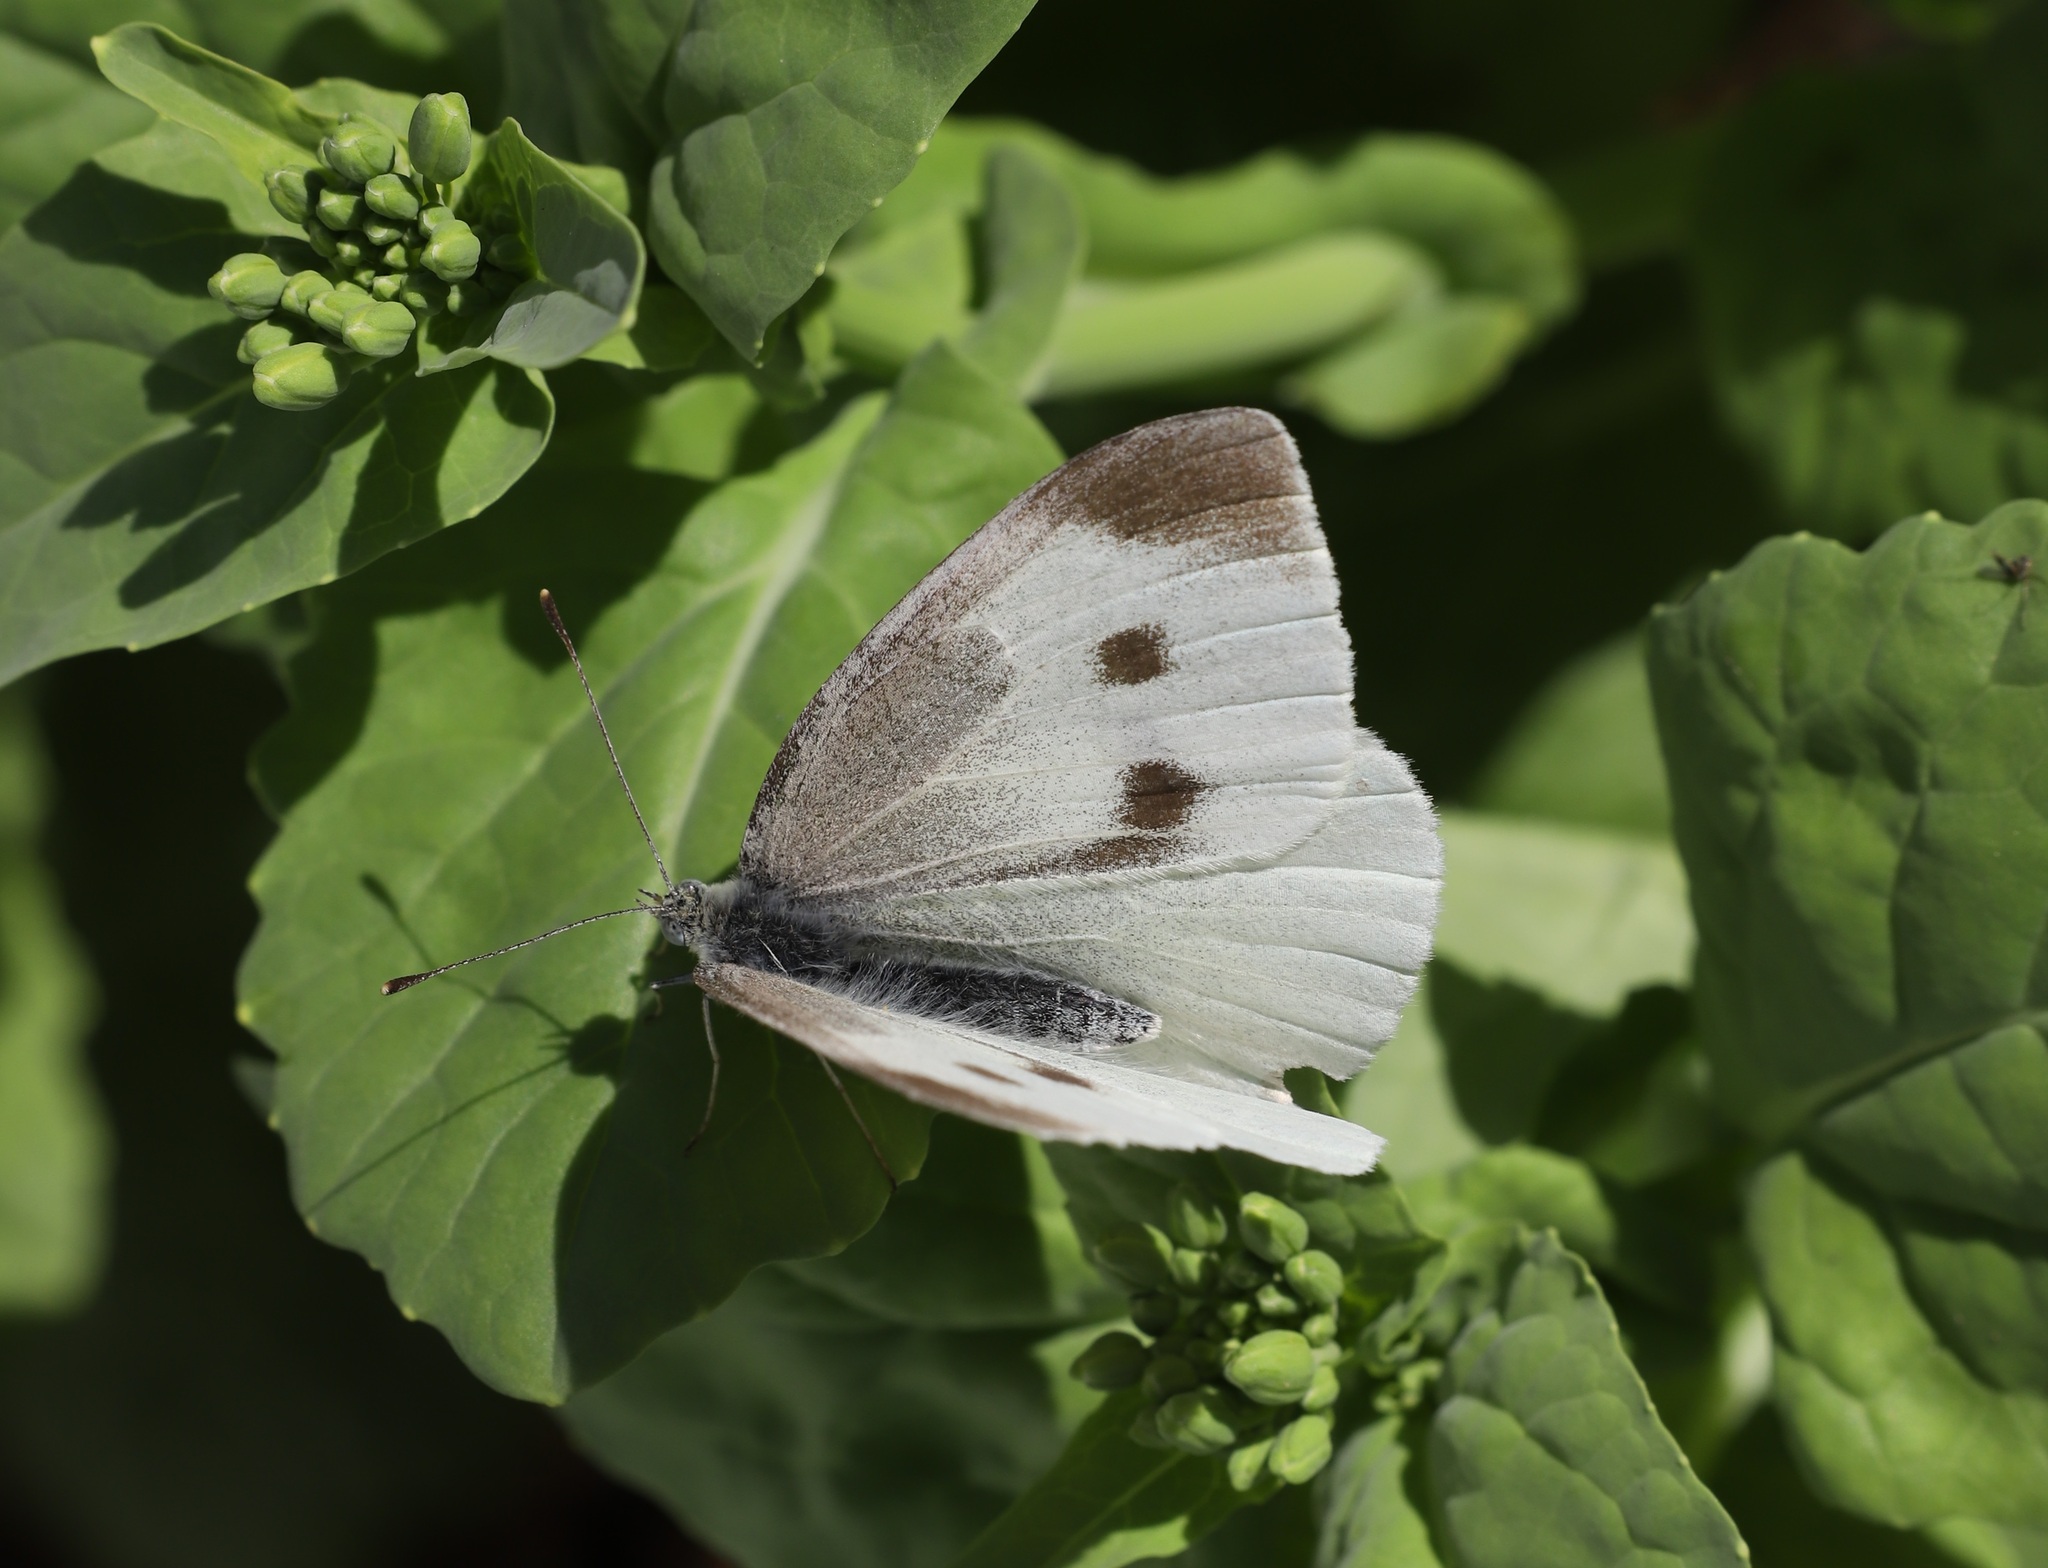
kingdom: Animalia
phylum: Arthropoda
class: Insecta
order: Lepidoptera
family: Pieridae
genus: Pieris
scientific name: Pieris rapae
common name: Small white
